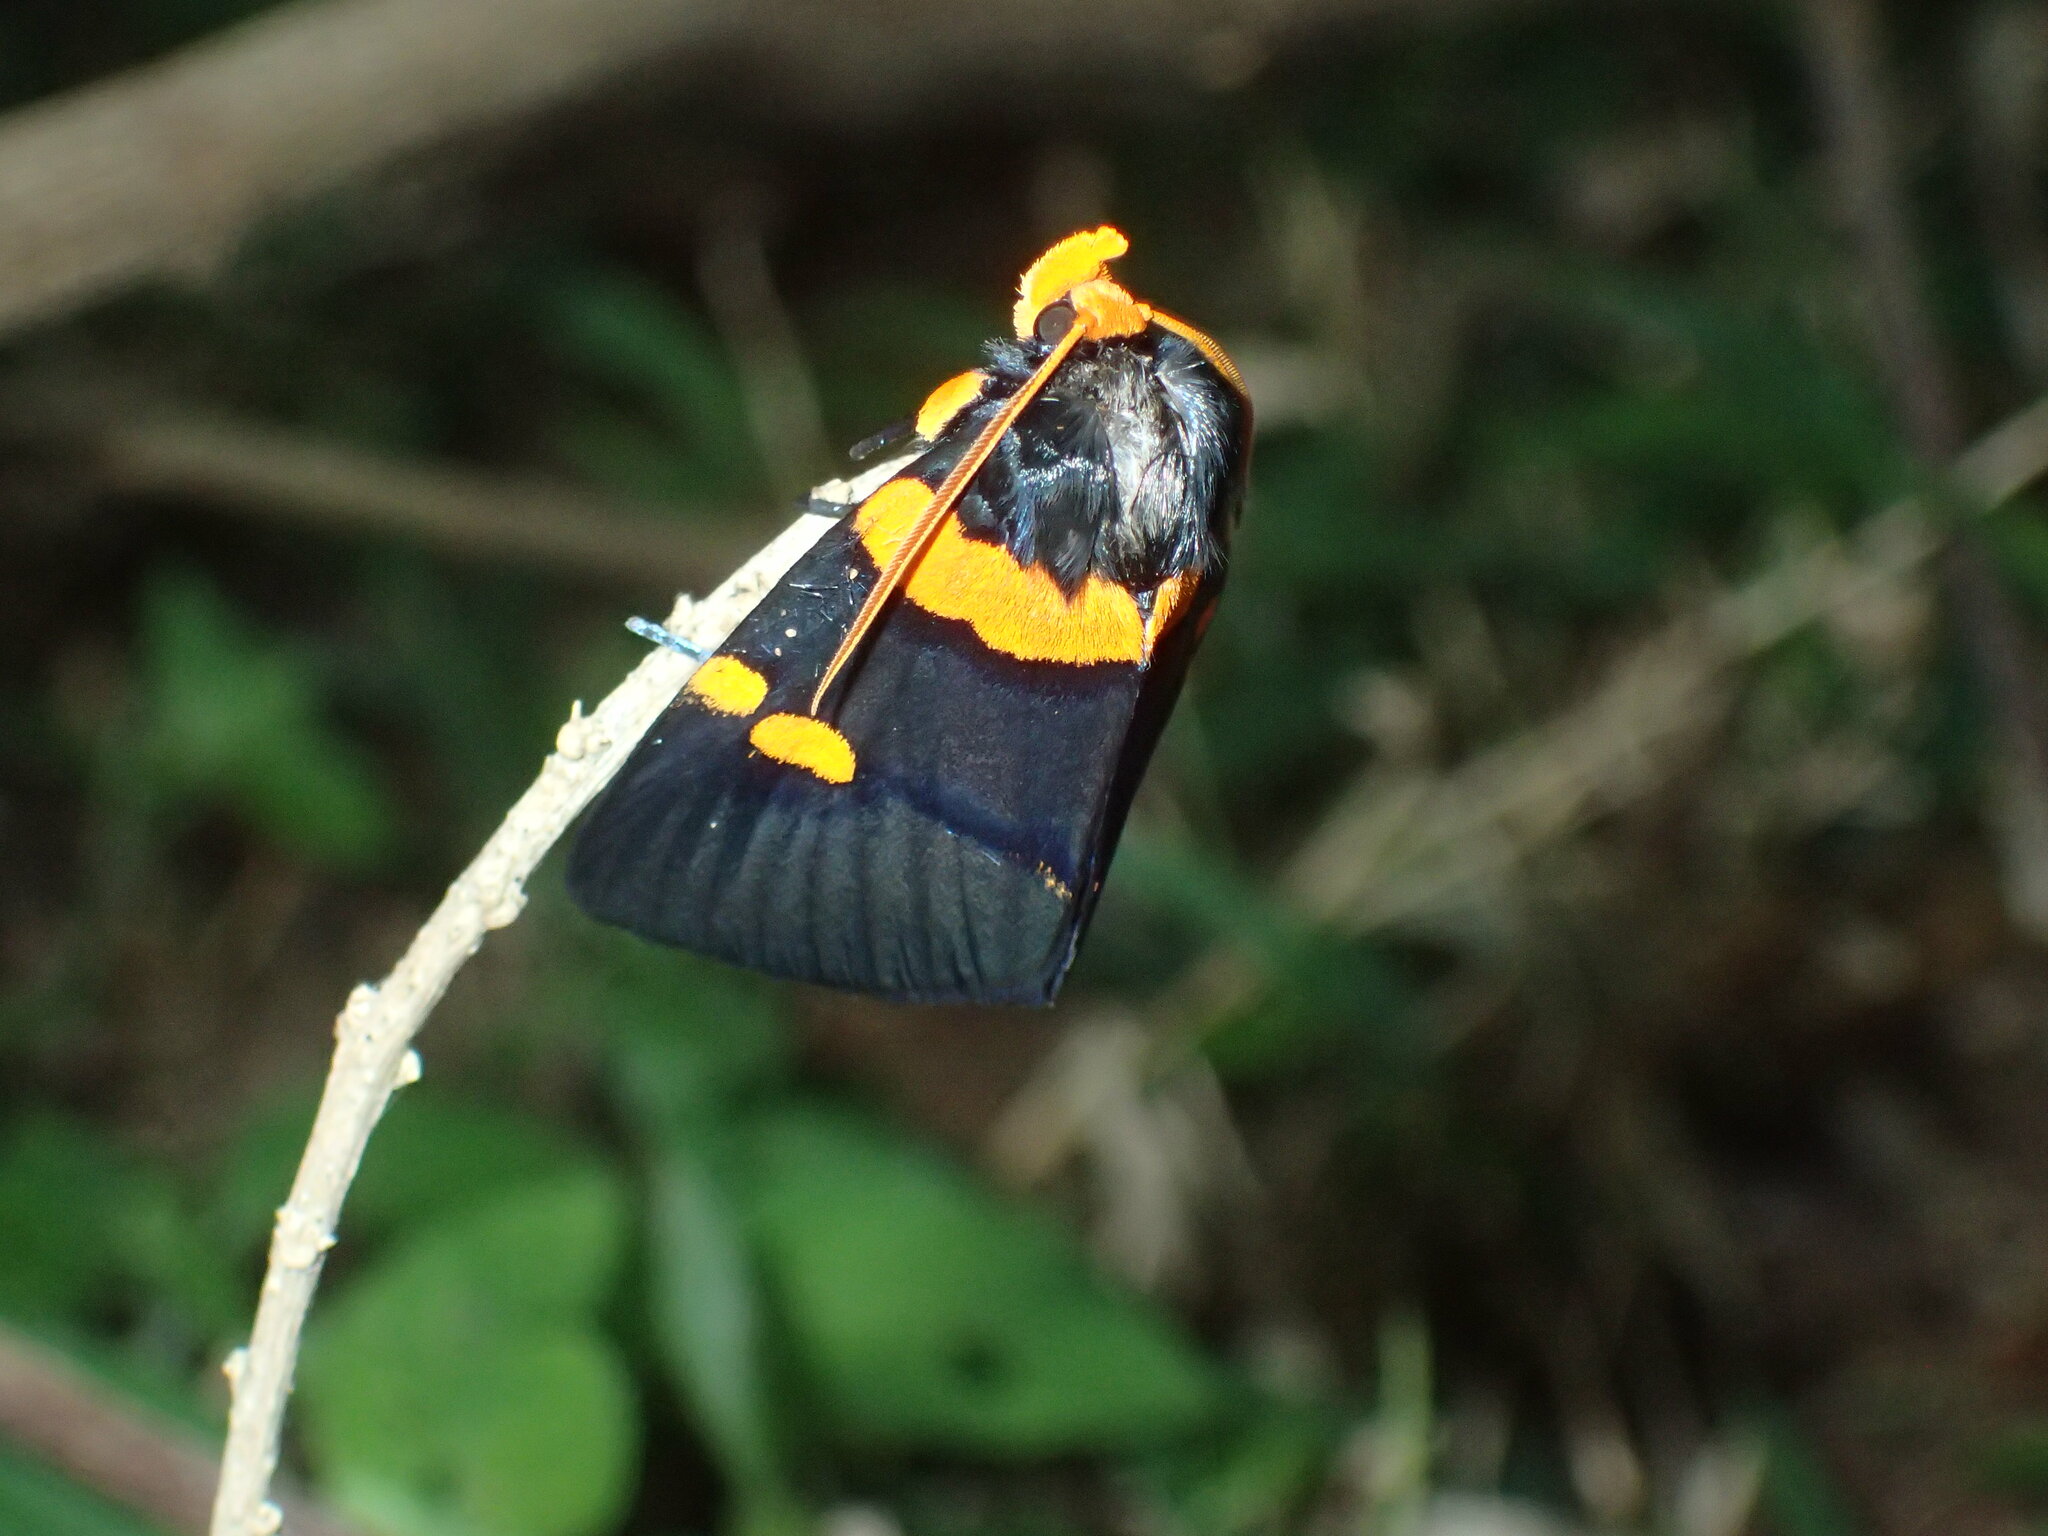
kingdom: Animalia
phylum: Arthropoda
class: Insecta
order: Lepidoptera
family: Erebidae
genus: Egybolis
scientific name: Egybolis vaillantina
